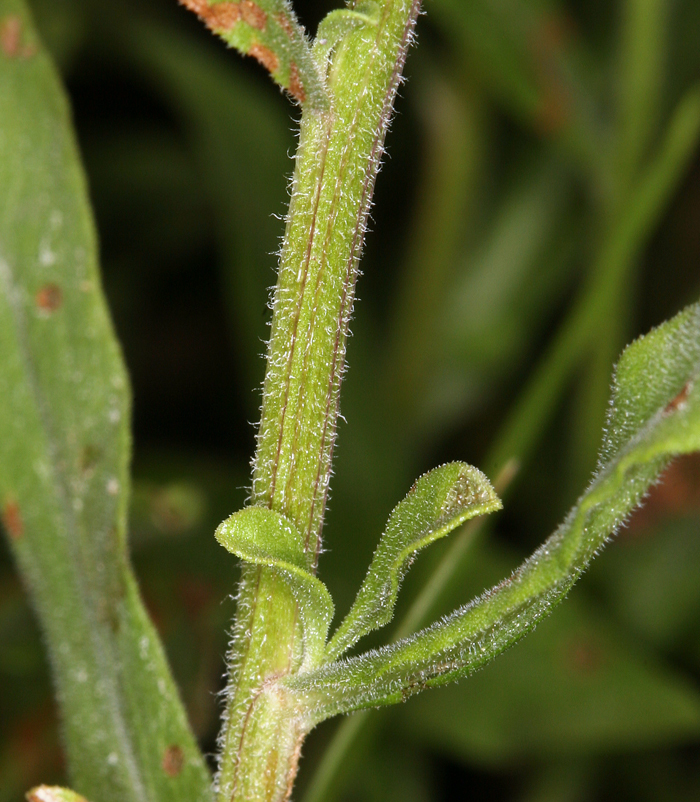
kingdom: Plantae
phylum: Tracheophyta
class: Magnoliopsida
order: Asterales
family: Asteraceae
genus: Sericocarpus
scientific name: Sericocarpus oregonensis
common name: Oregon white-top aster
